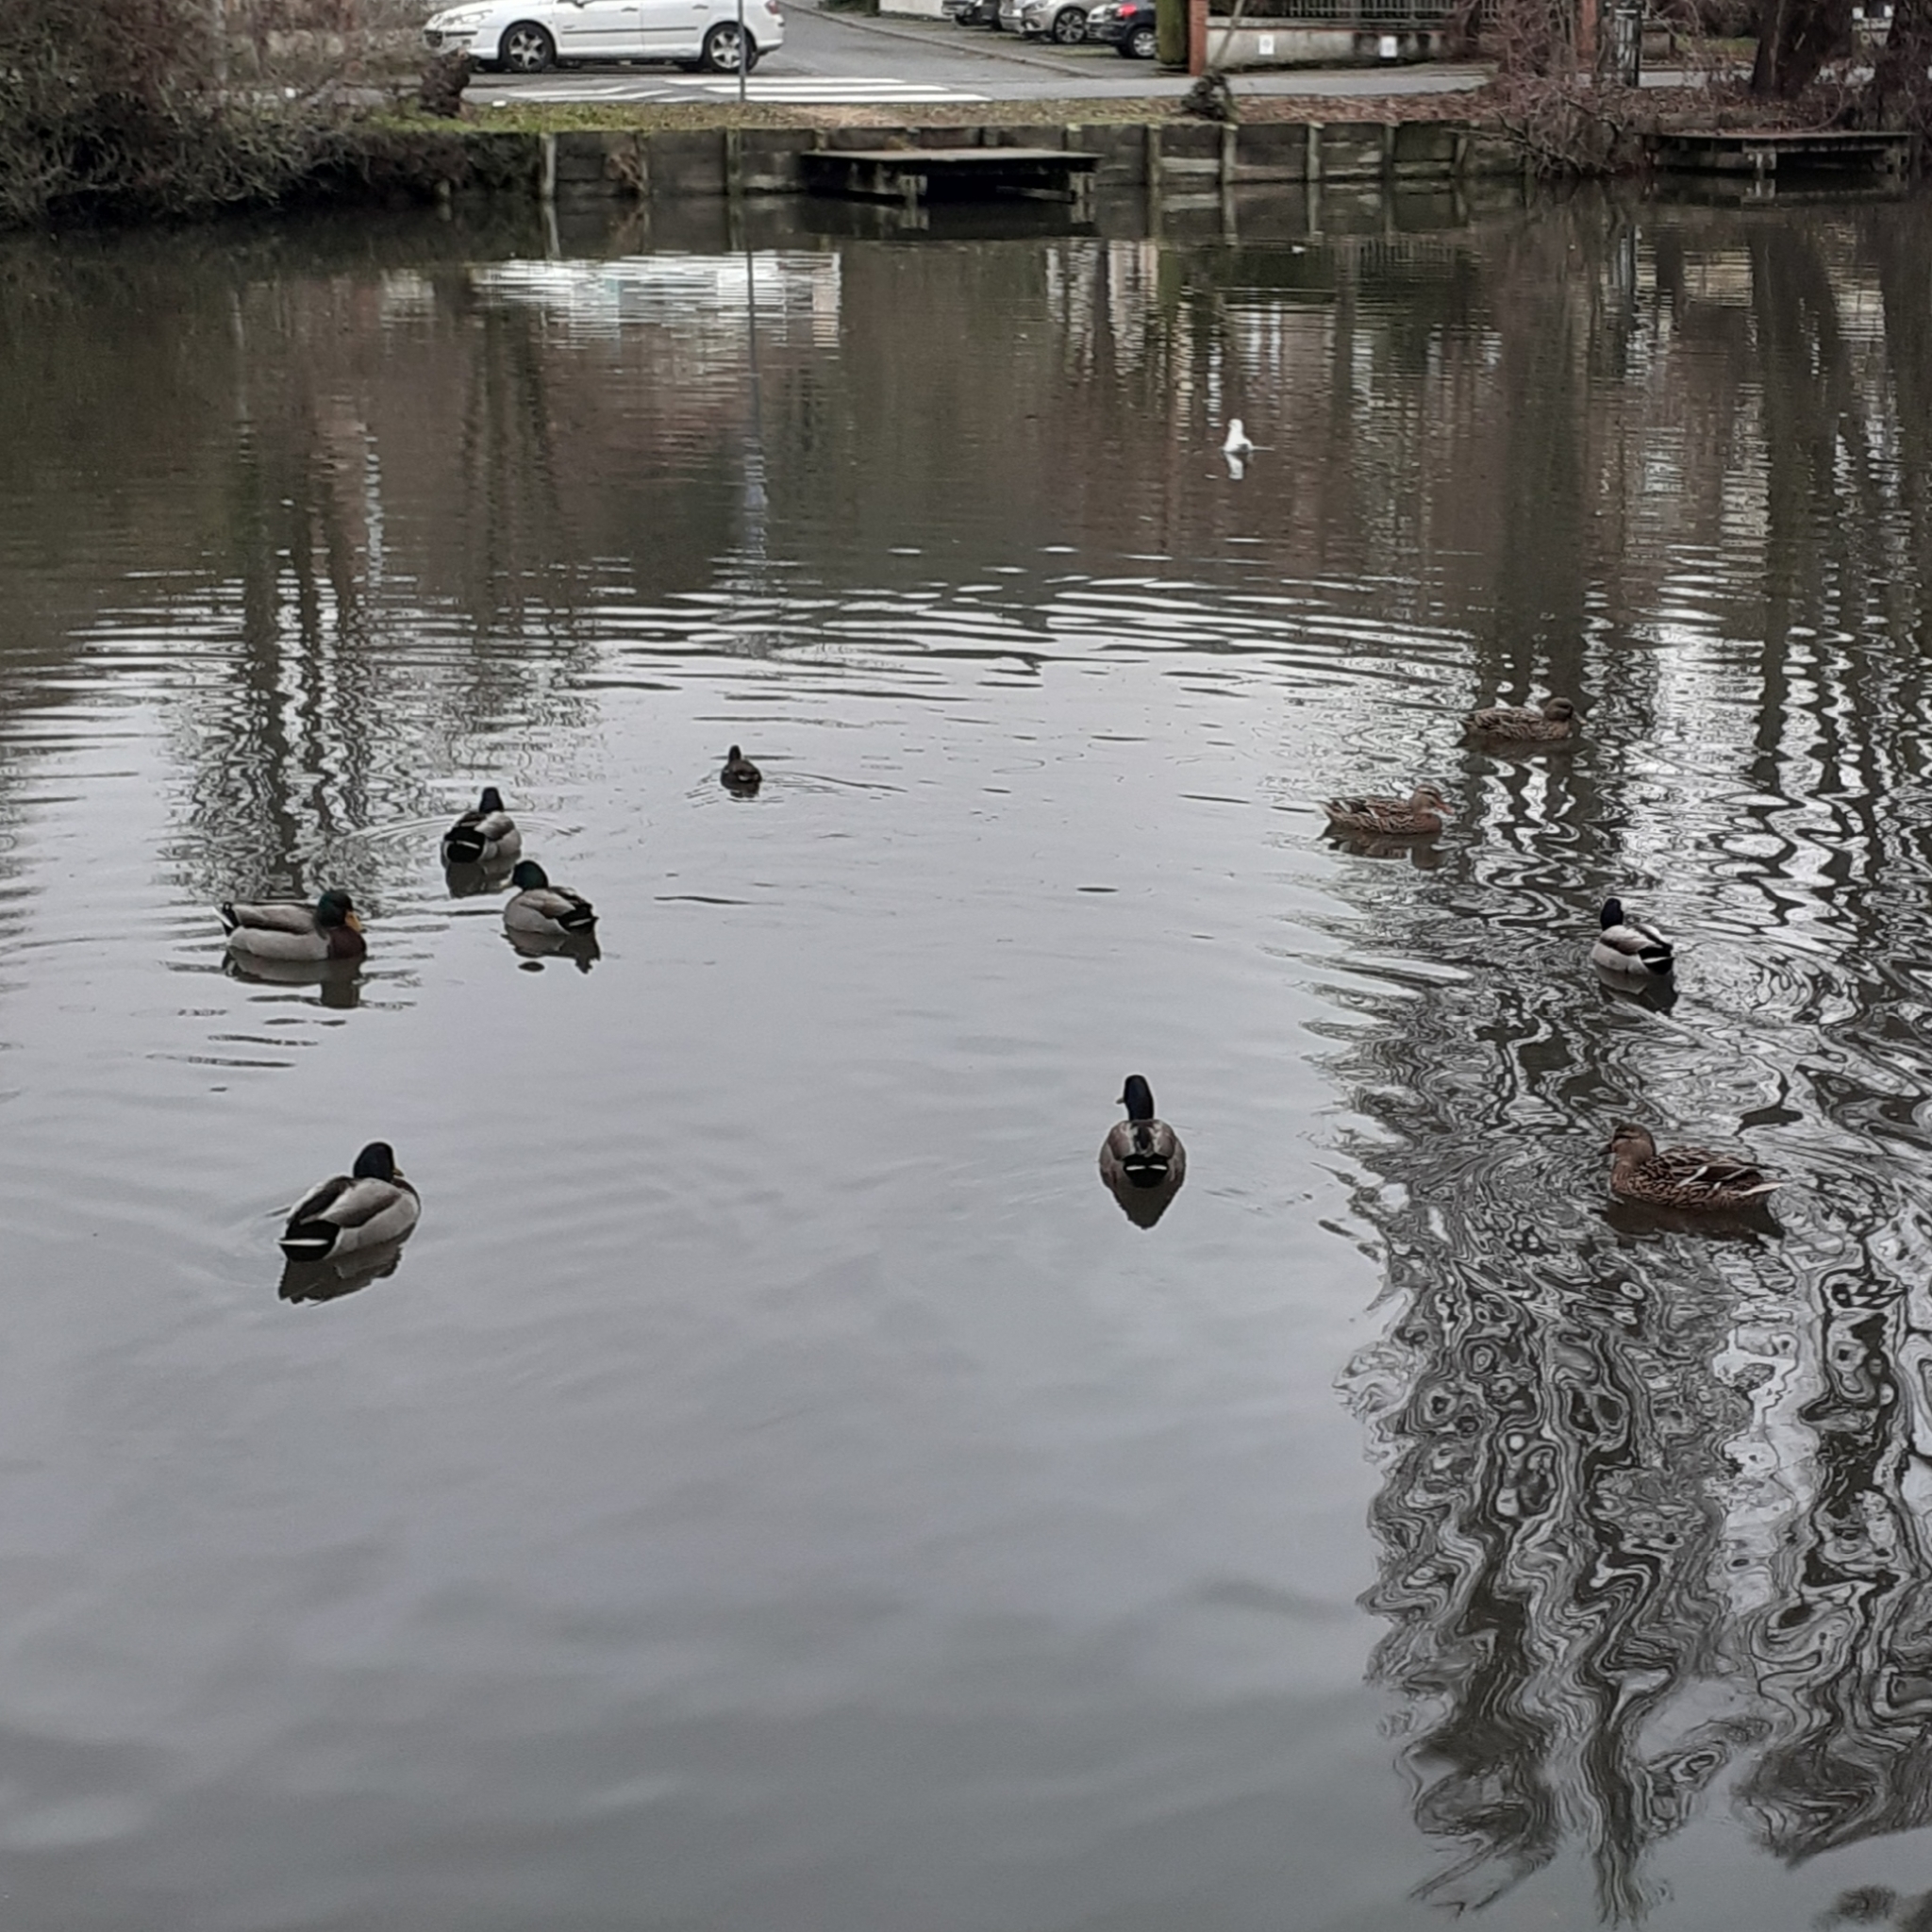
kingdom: Animalia
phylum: Chordata
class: Aves
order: Anseriformes
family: Anatidae
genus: Anas
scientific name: Anas platyrhynchos
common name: Mallard
